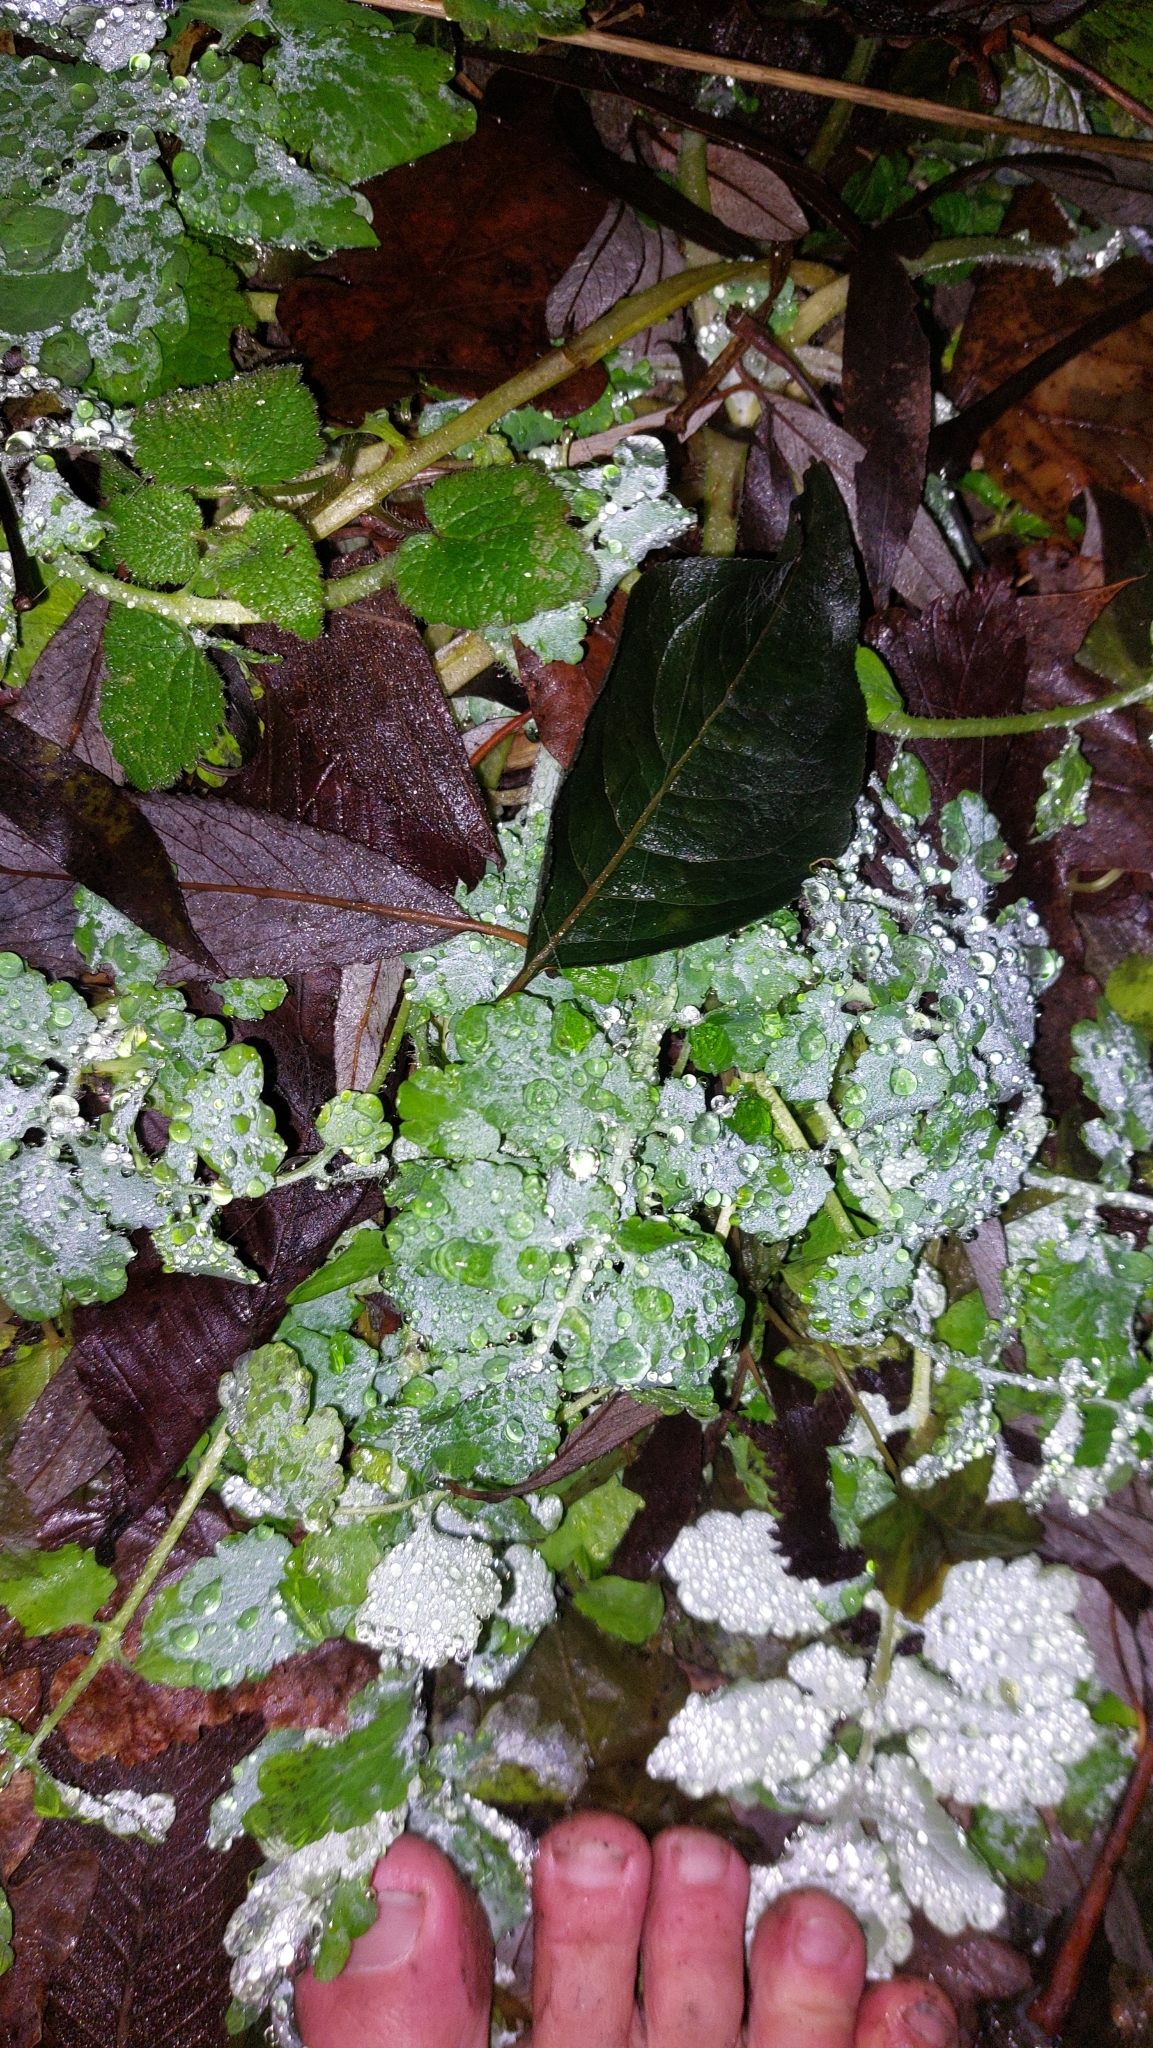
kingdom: Plantae
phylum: Tracheophyta
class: Magnoliopsida
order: Ranunculales
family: Papaveraceae
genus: Chelidonium
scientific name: Chelidonium majus
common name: Greater celandine
